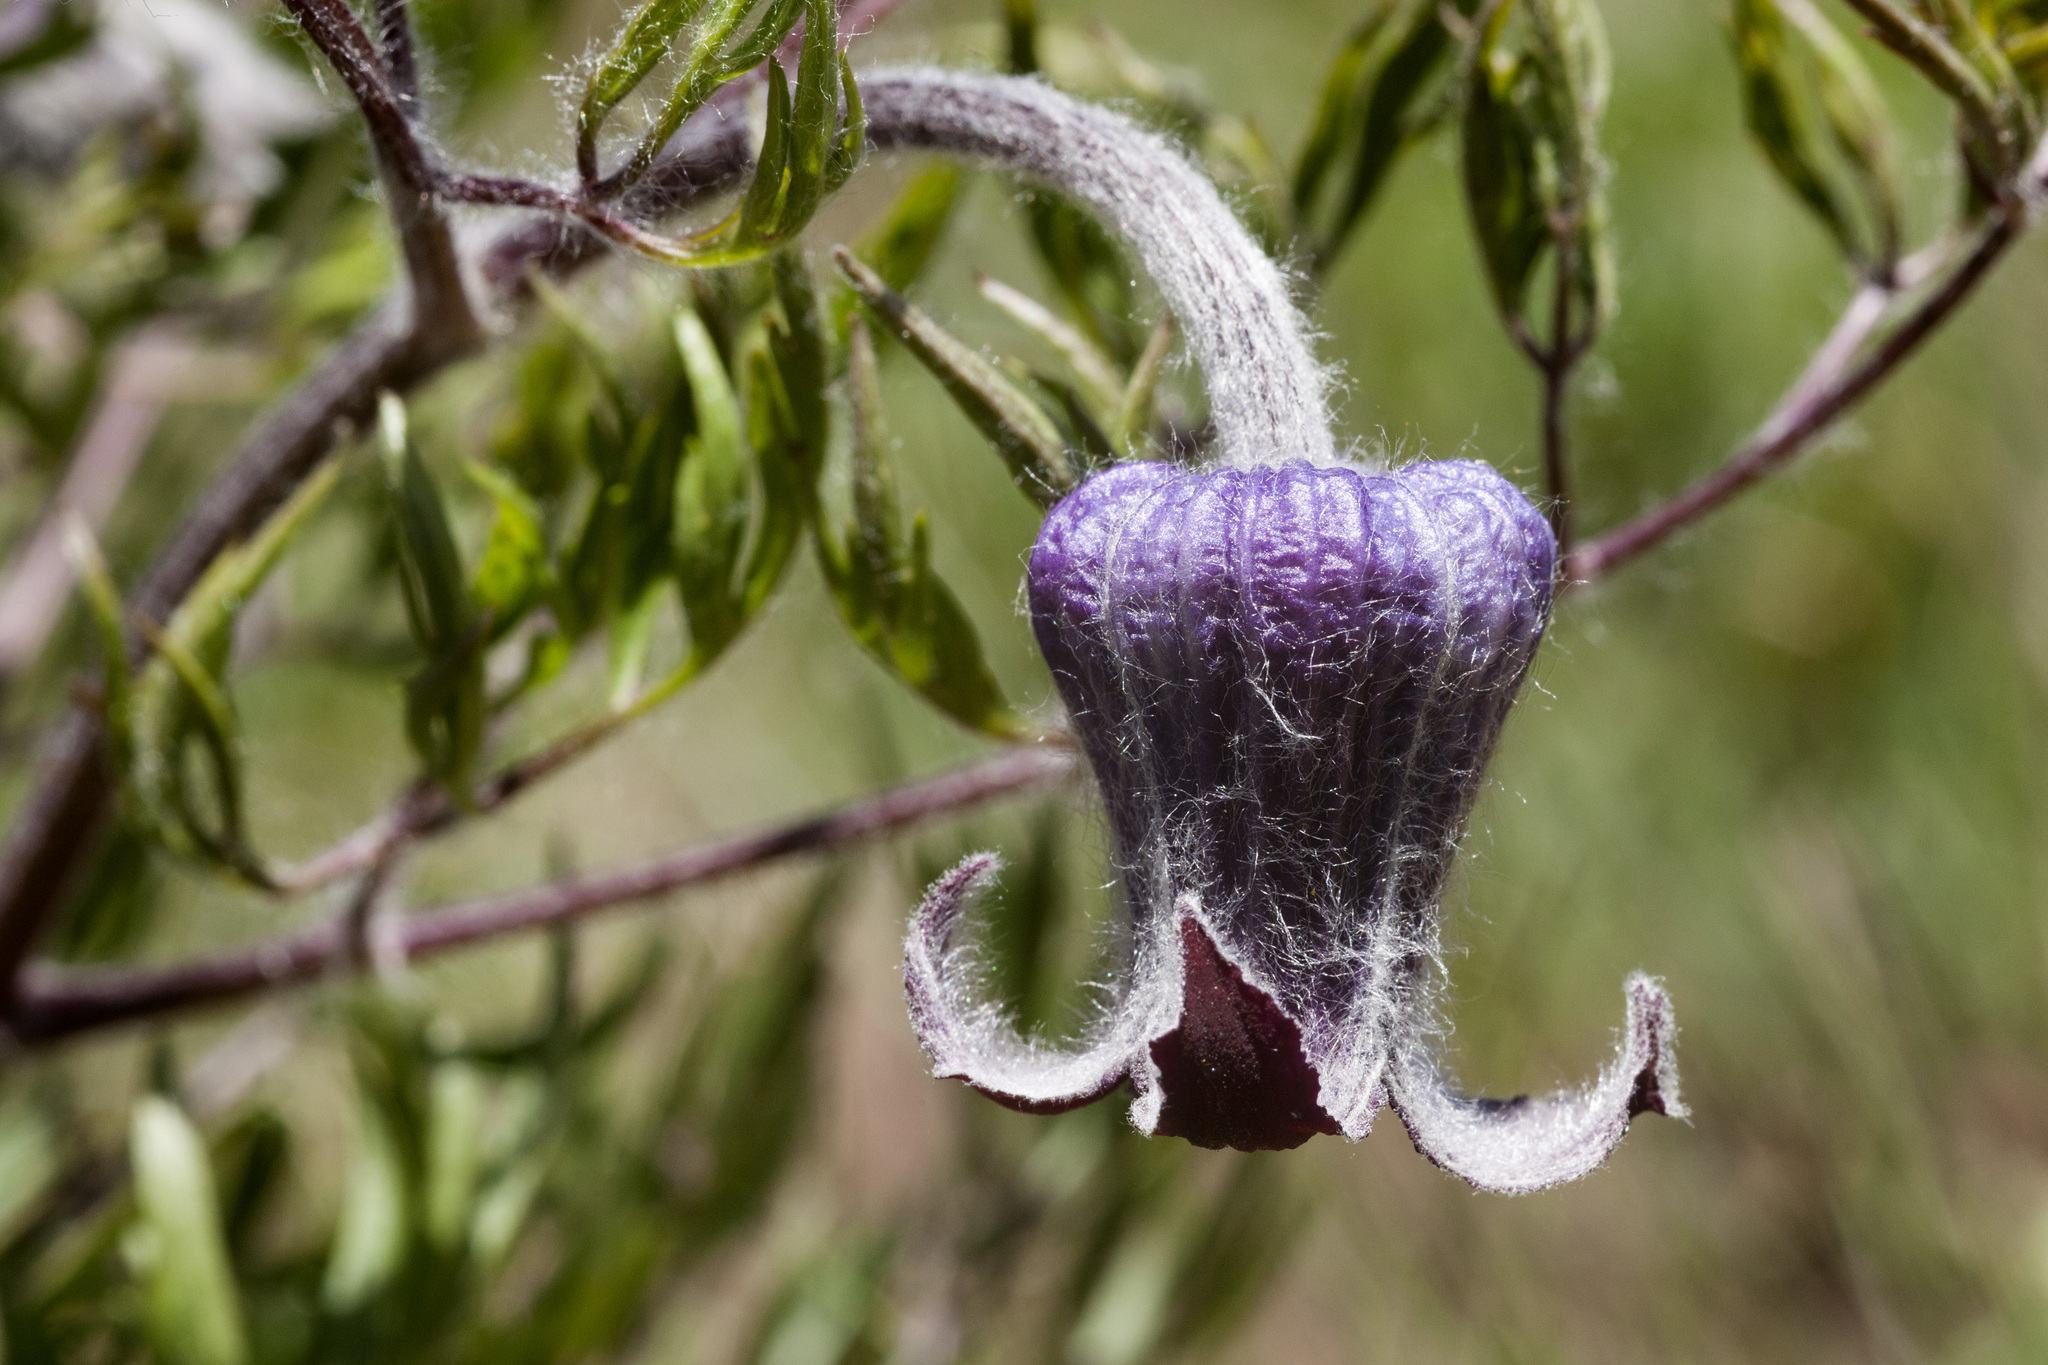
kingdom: Plantae
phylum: Tracheophyta
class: Magnoliopsida
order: Ranunculales
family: Ranunculaceae
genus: Clematis
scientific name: Clematis hirsutissima
